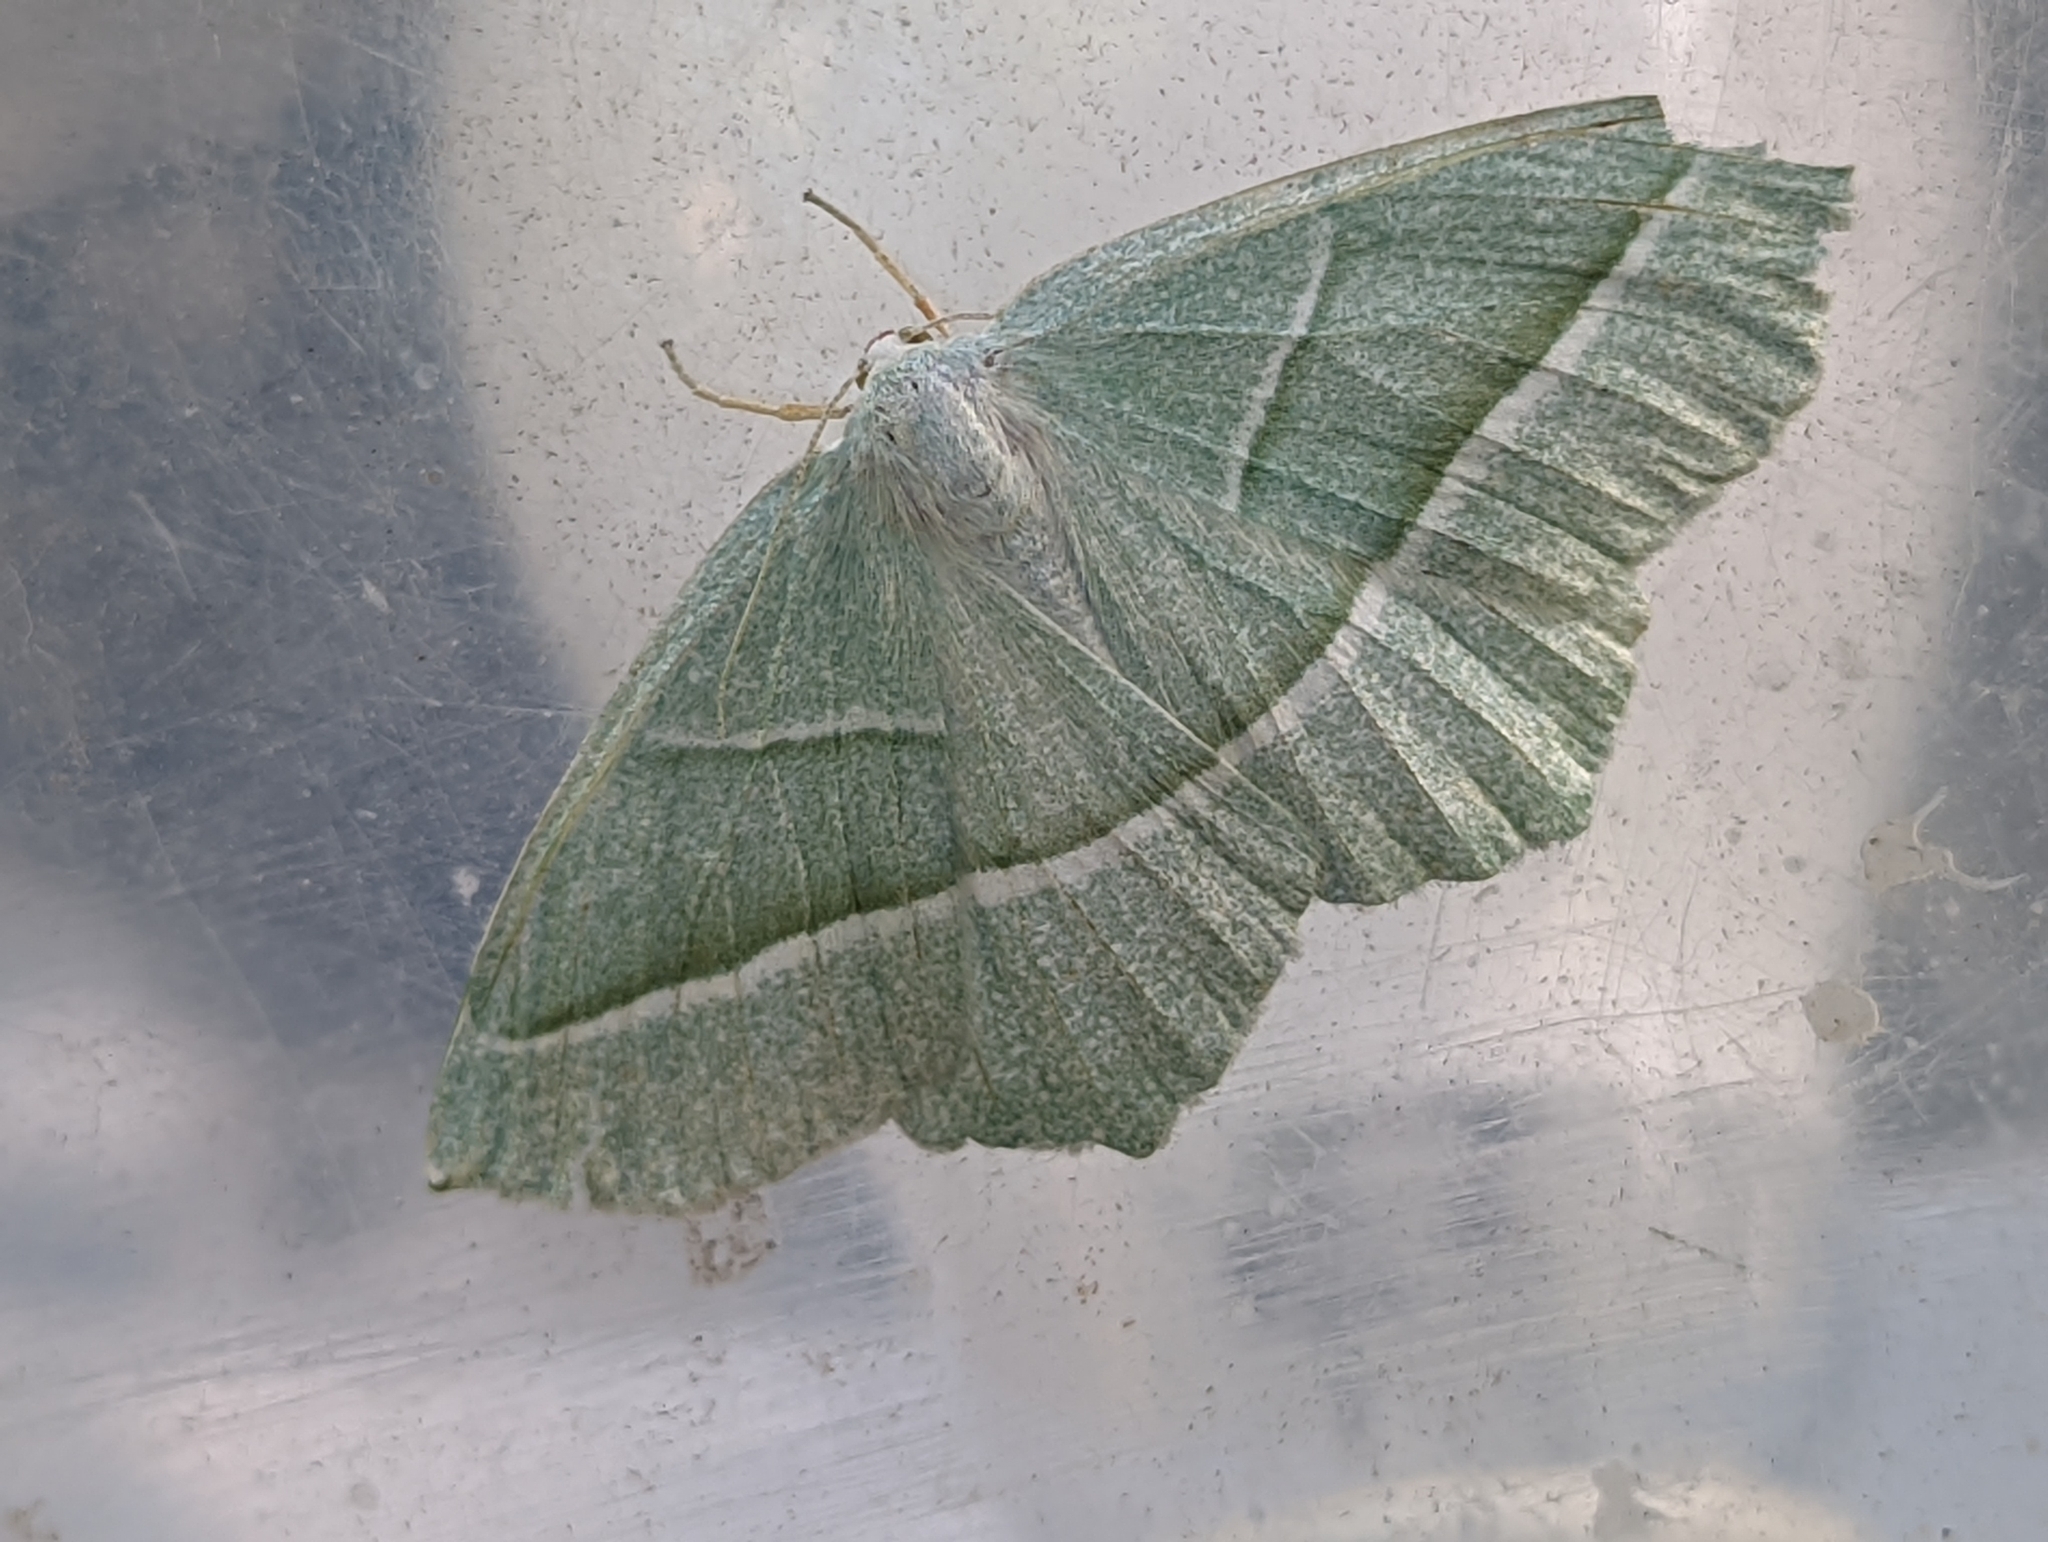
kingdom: Animalia
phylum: Arthropoda
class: Insecta
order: Lepidoptera
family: Geometridae
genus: Campaea
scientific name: Campaea margaritaria
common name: Light emerald
